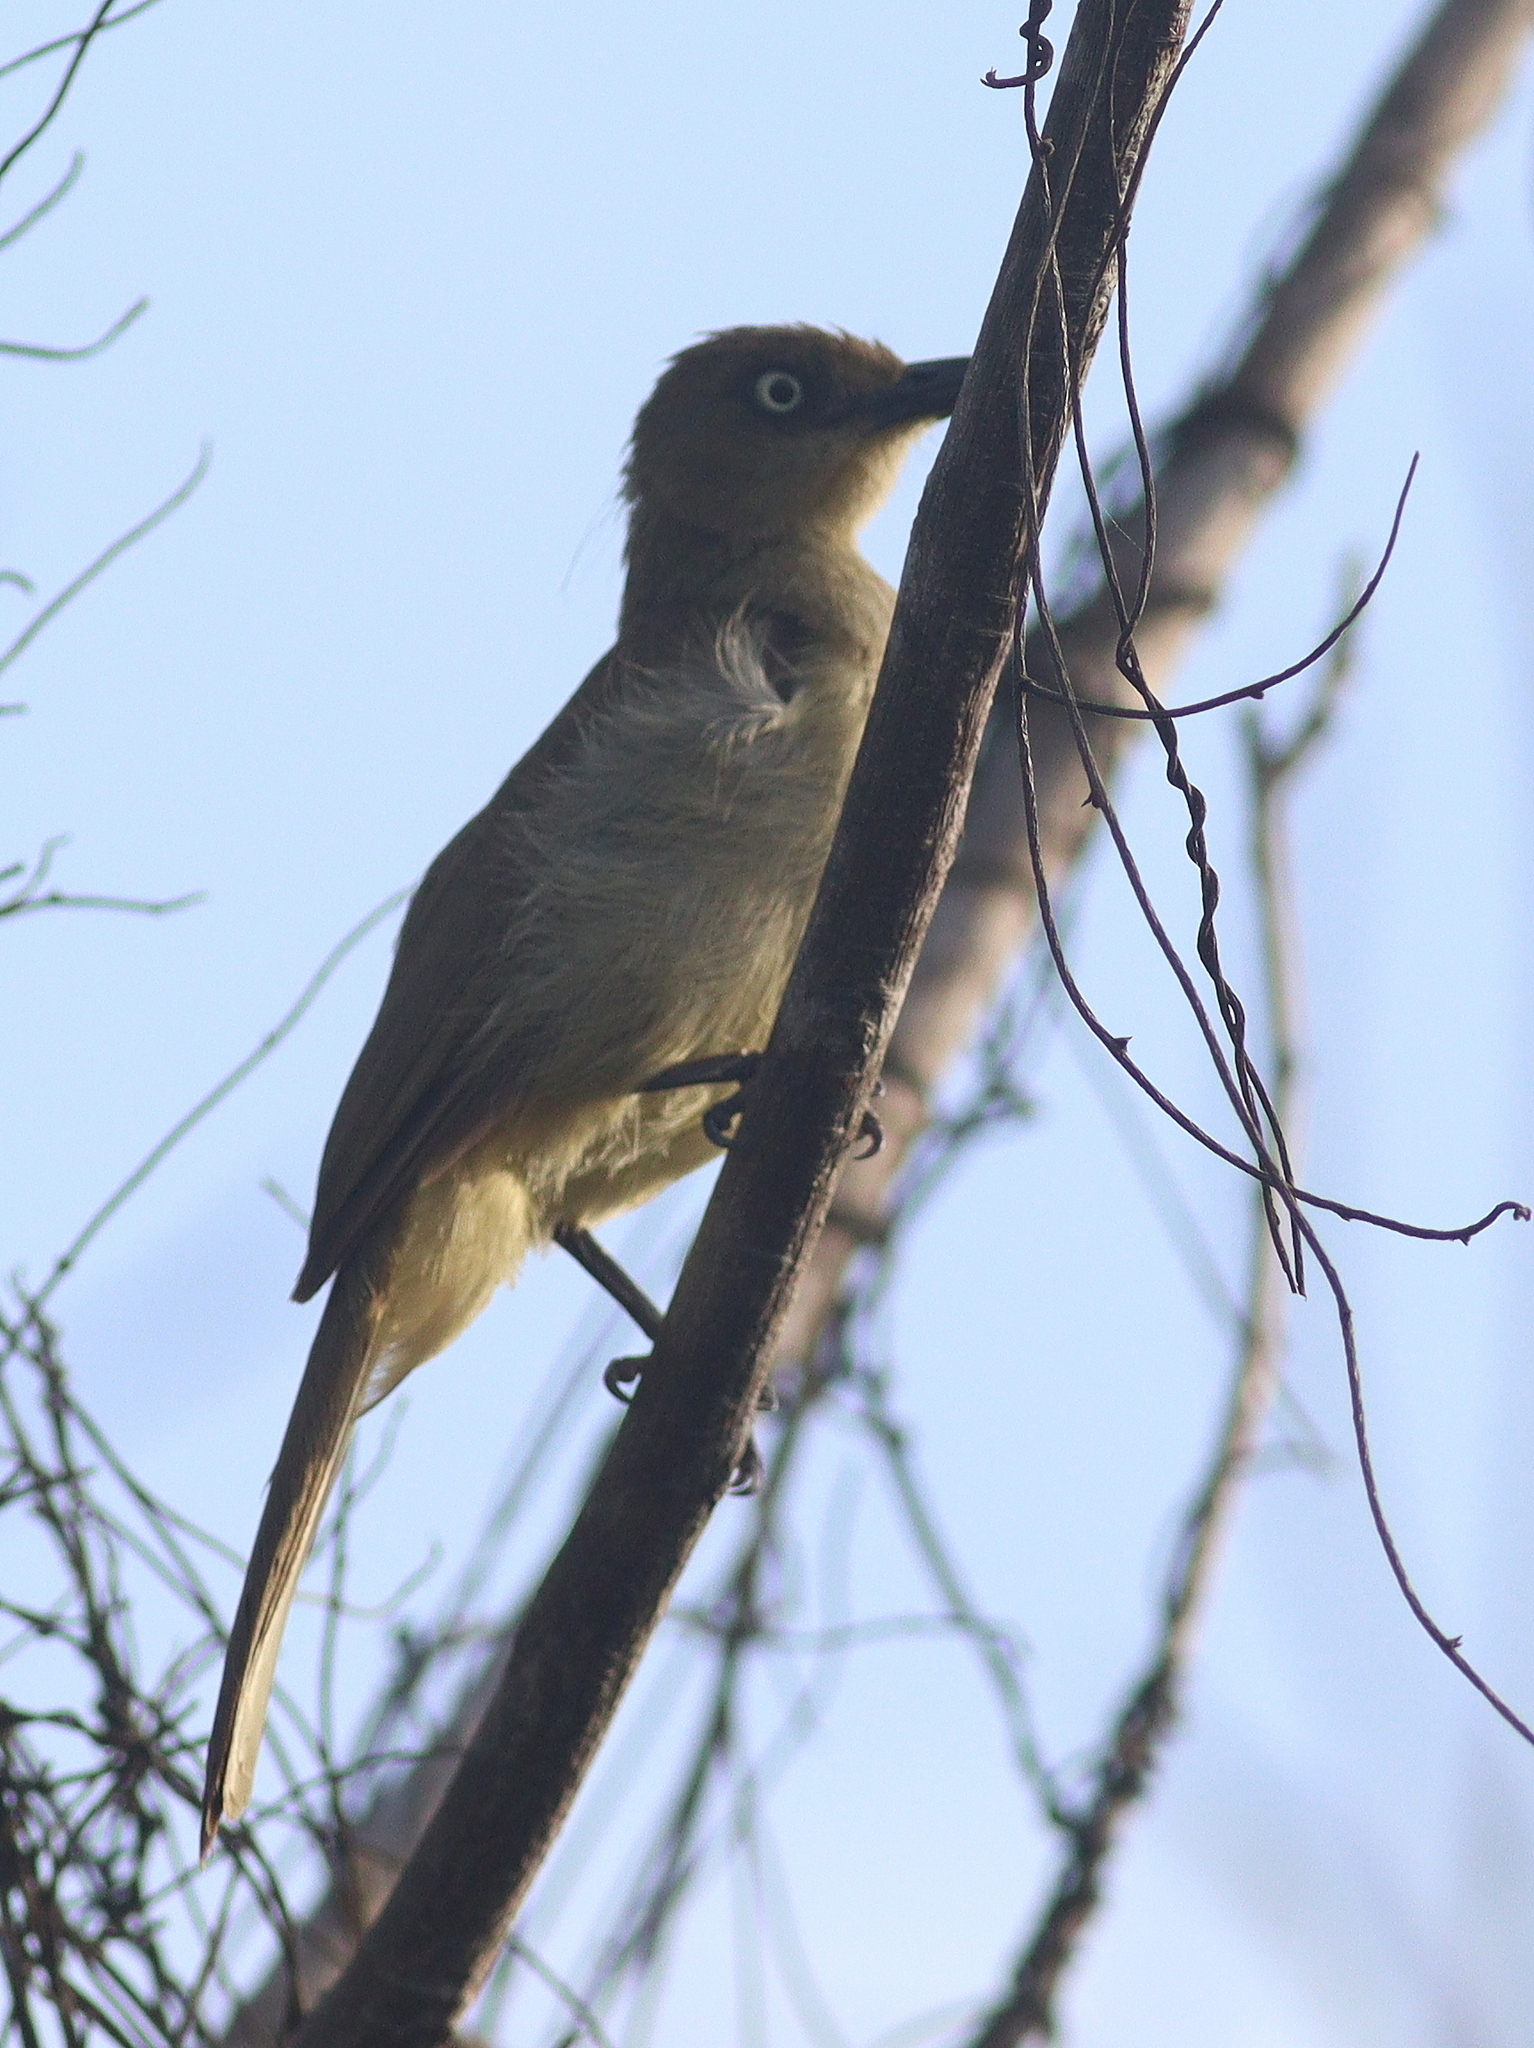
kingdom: Animalia
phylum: Chordata
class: Aves
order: Passeriformes
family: Pycnonotidae
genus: Andropadus
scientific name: Andropadus importunus
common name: Sombre greenbul
